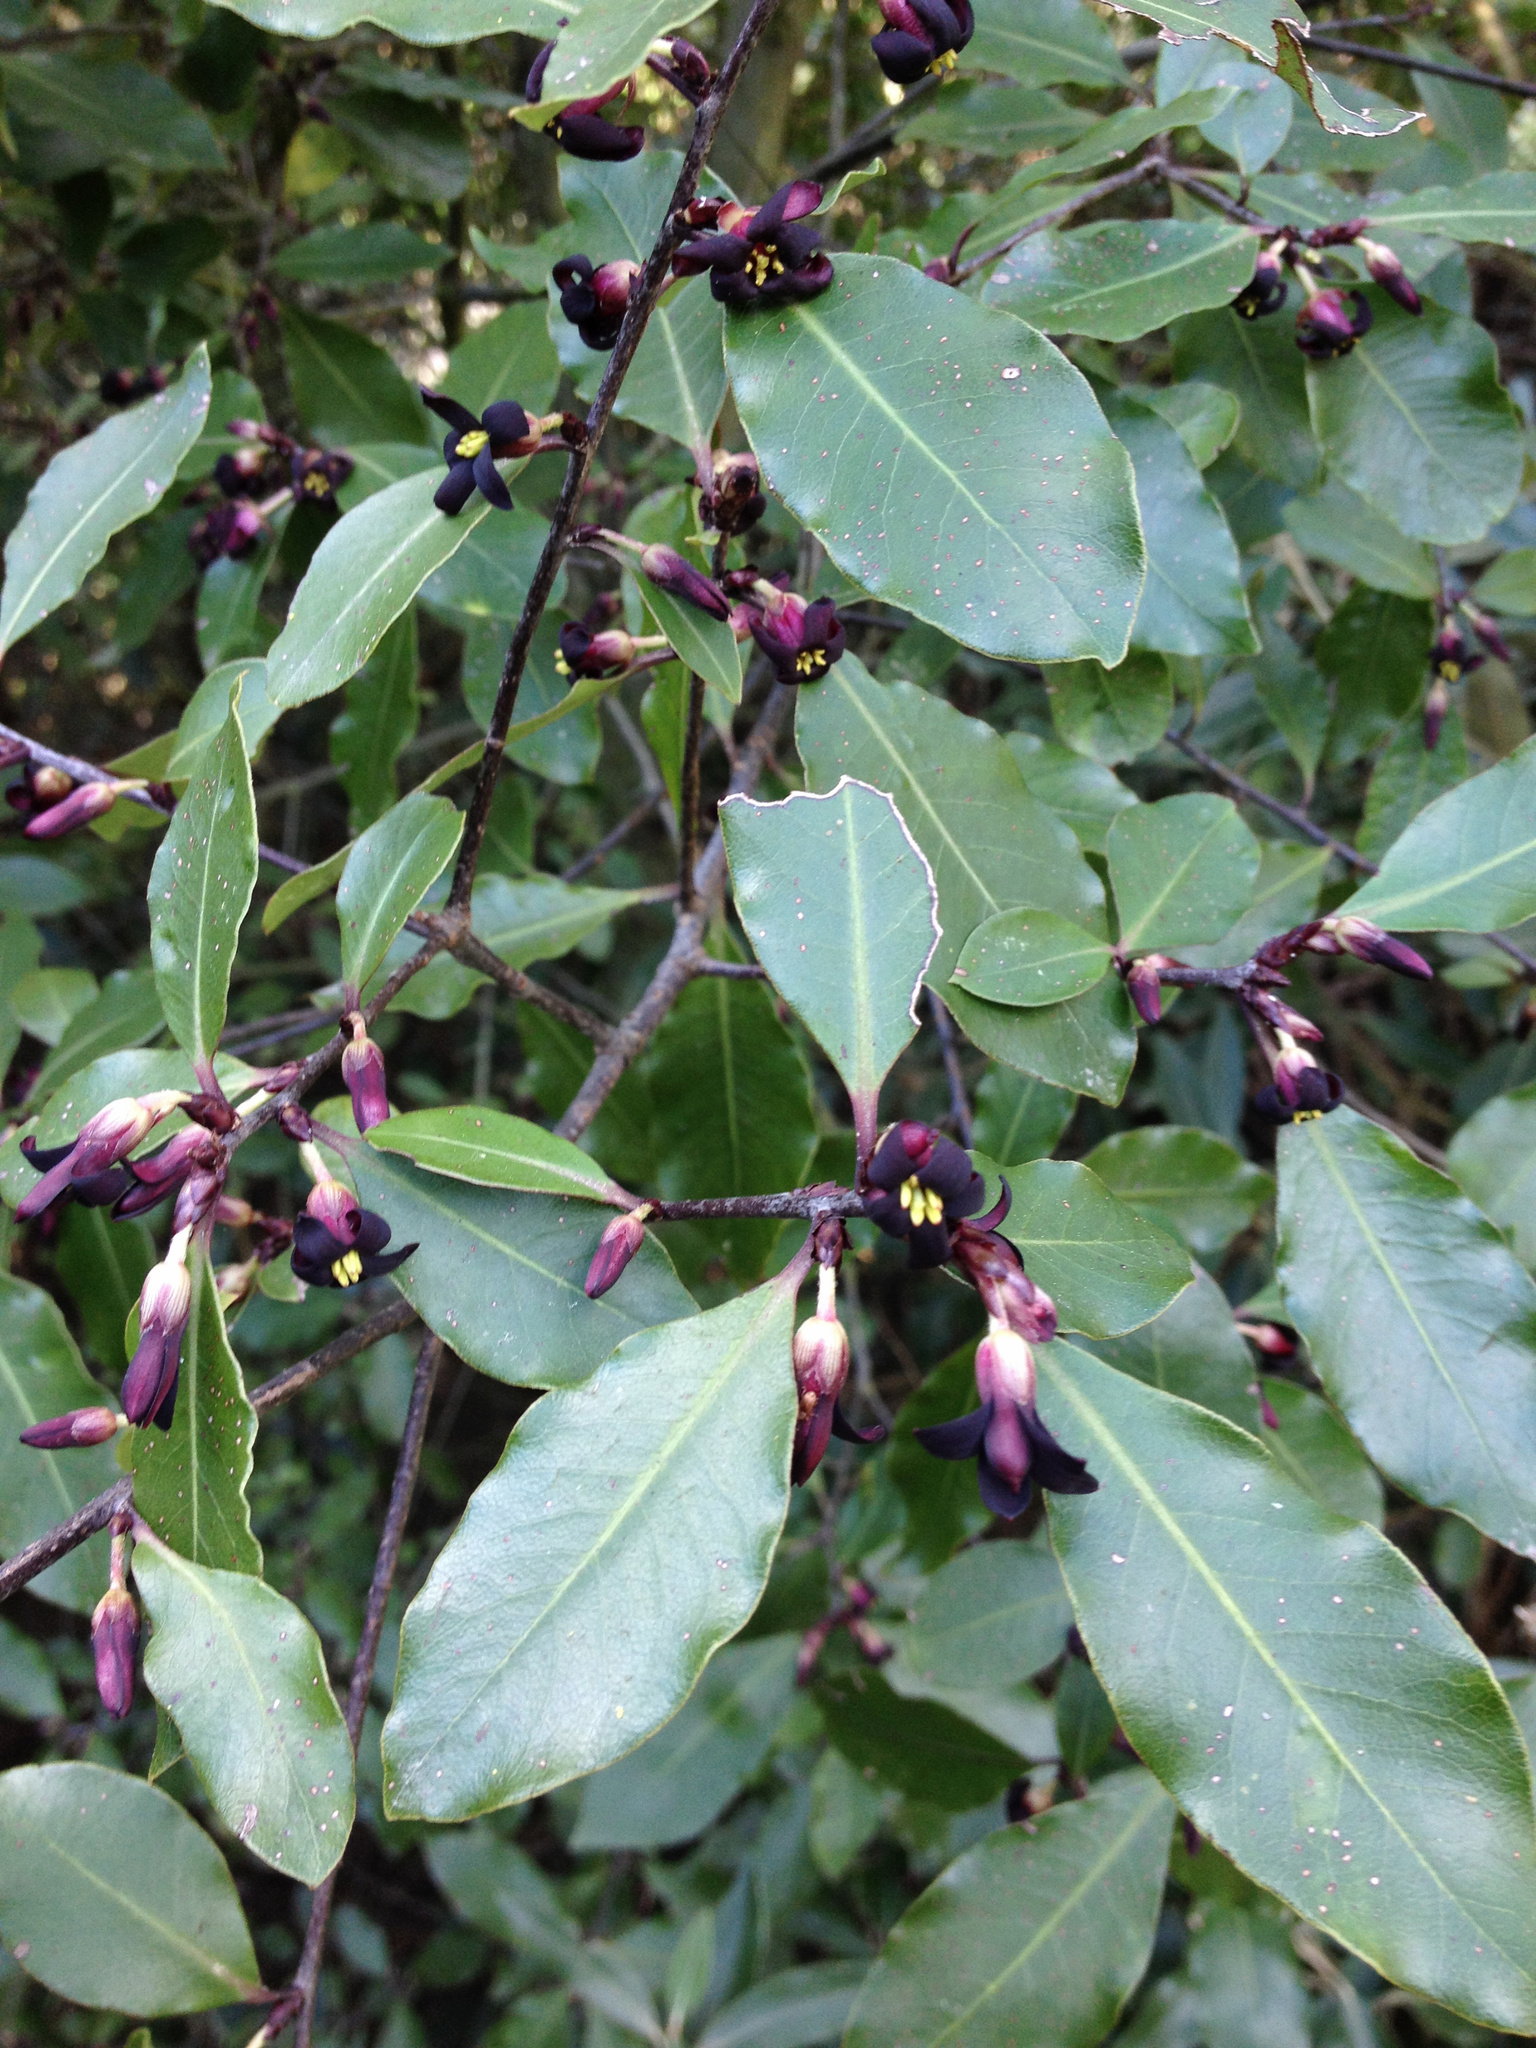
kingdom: Plantae
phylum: Tracheophyta
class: Magnoliopsida
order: Apiales
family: Pittosporaceae
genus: Pittosporum
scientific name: Pittosporum tenuifolium
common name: Kohuhu
